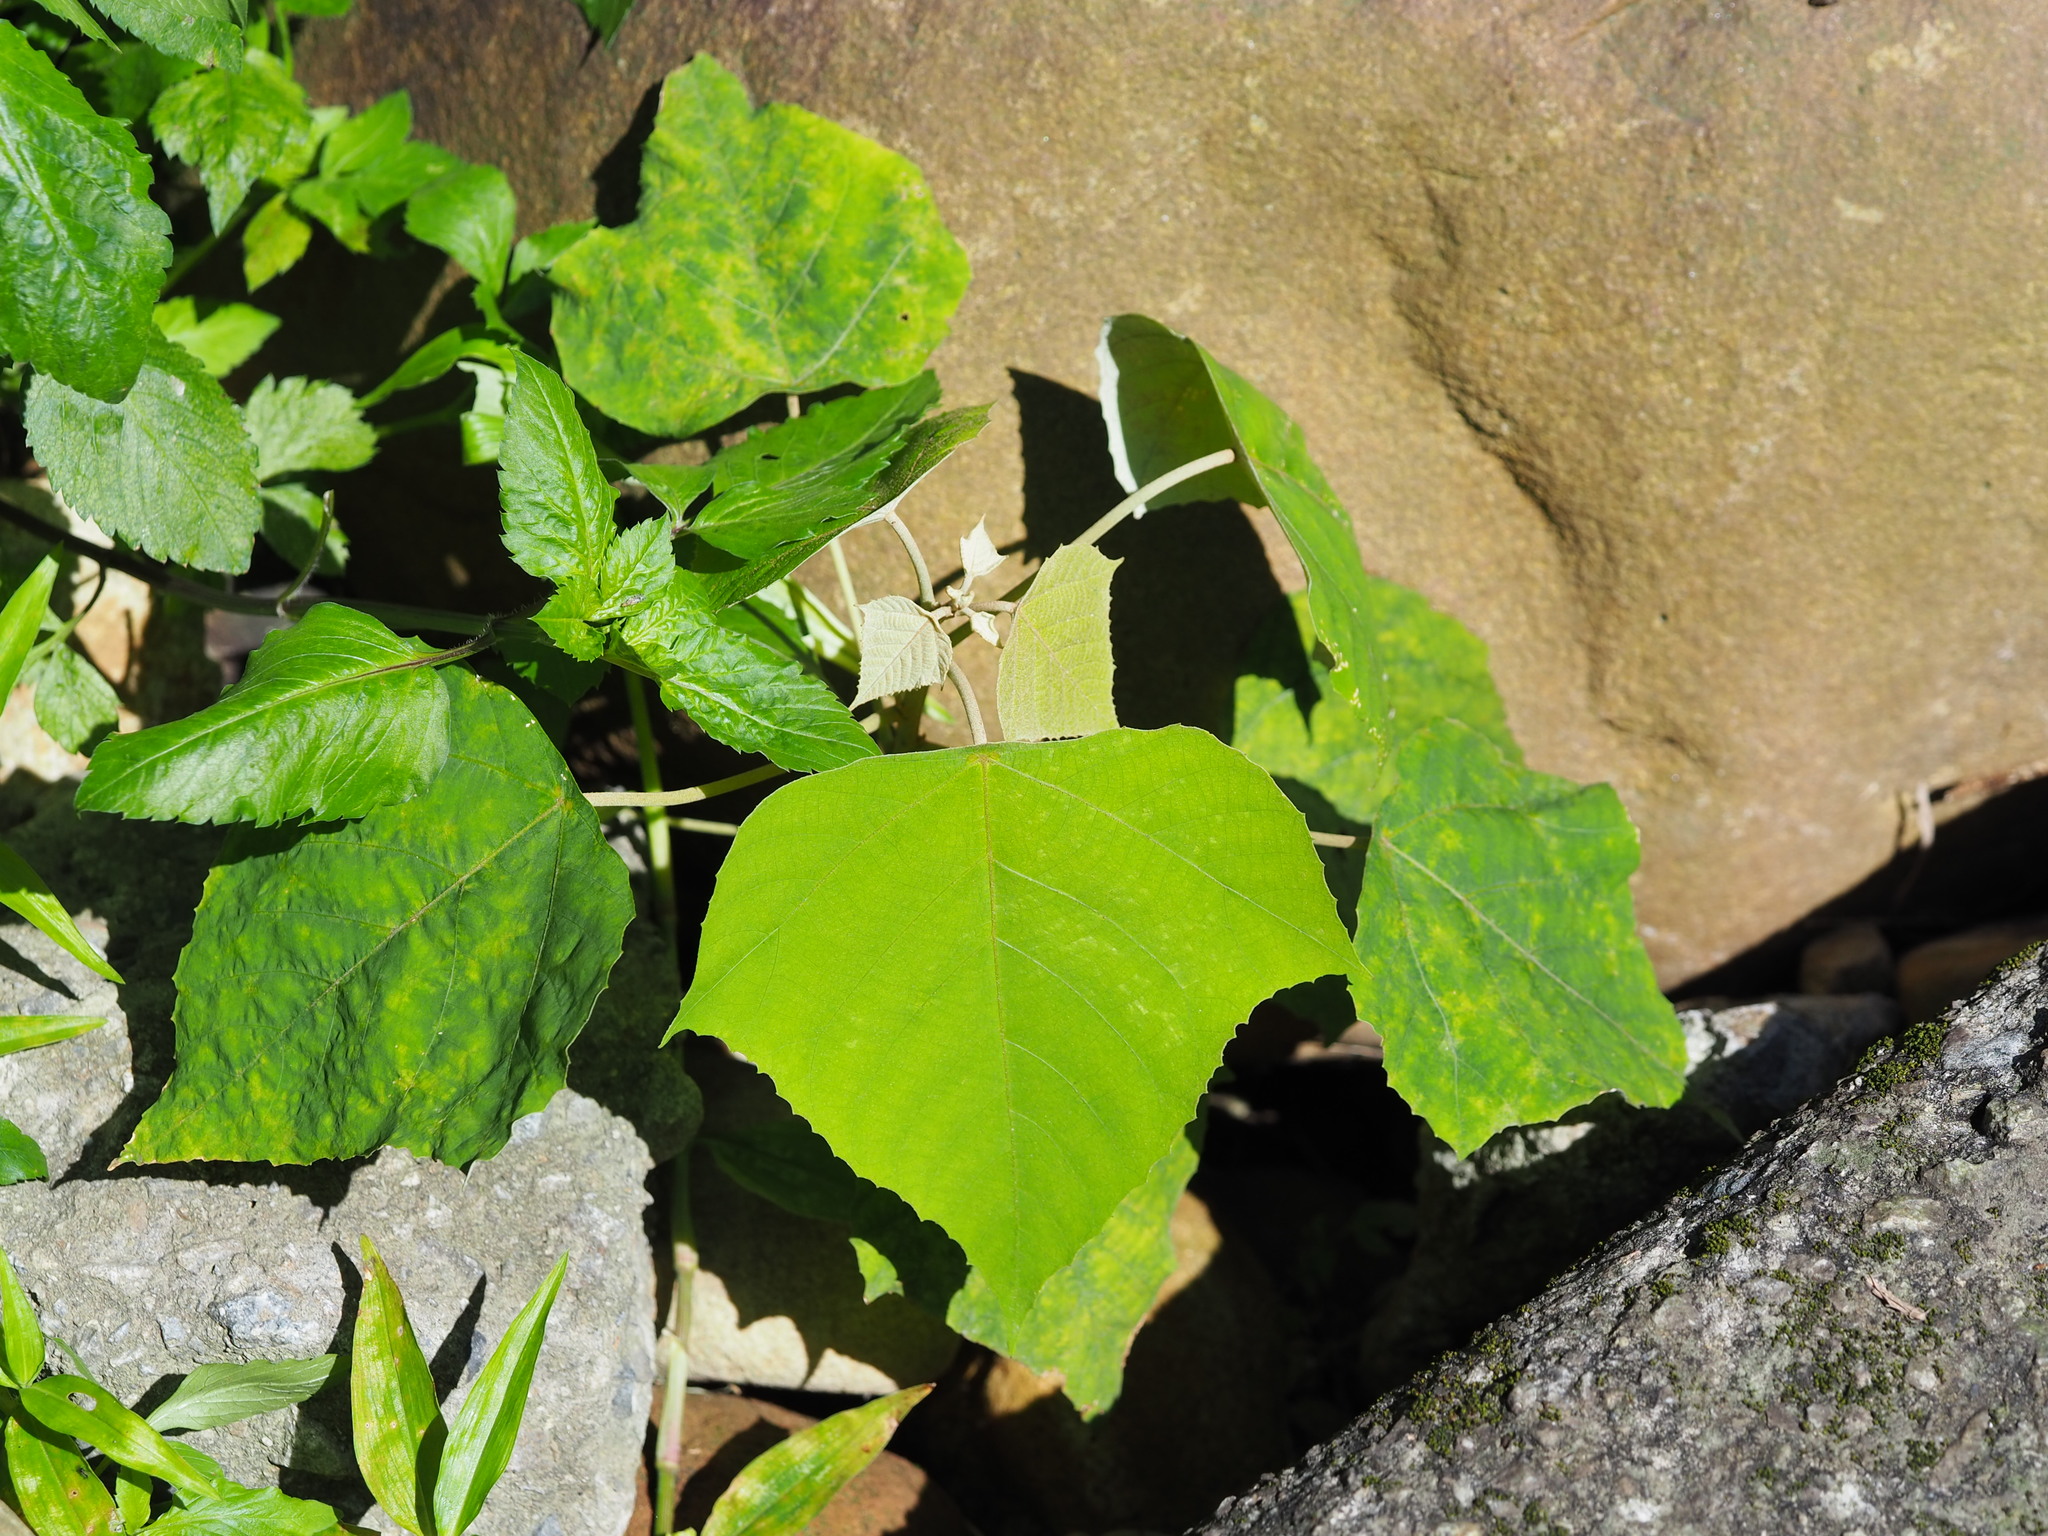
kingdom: Plantae
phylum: Tracheophyta
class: Magnoliopsida
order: Malpighiales
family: Euphorbiaceae
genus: Mallotus
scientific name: Mallotus paniculatus
